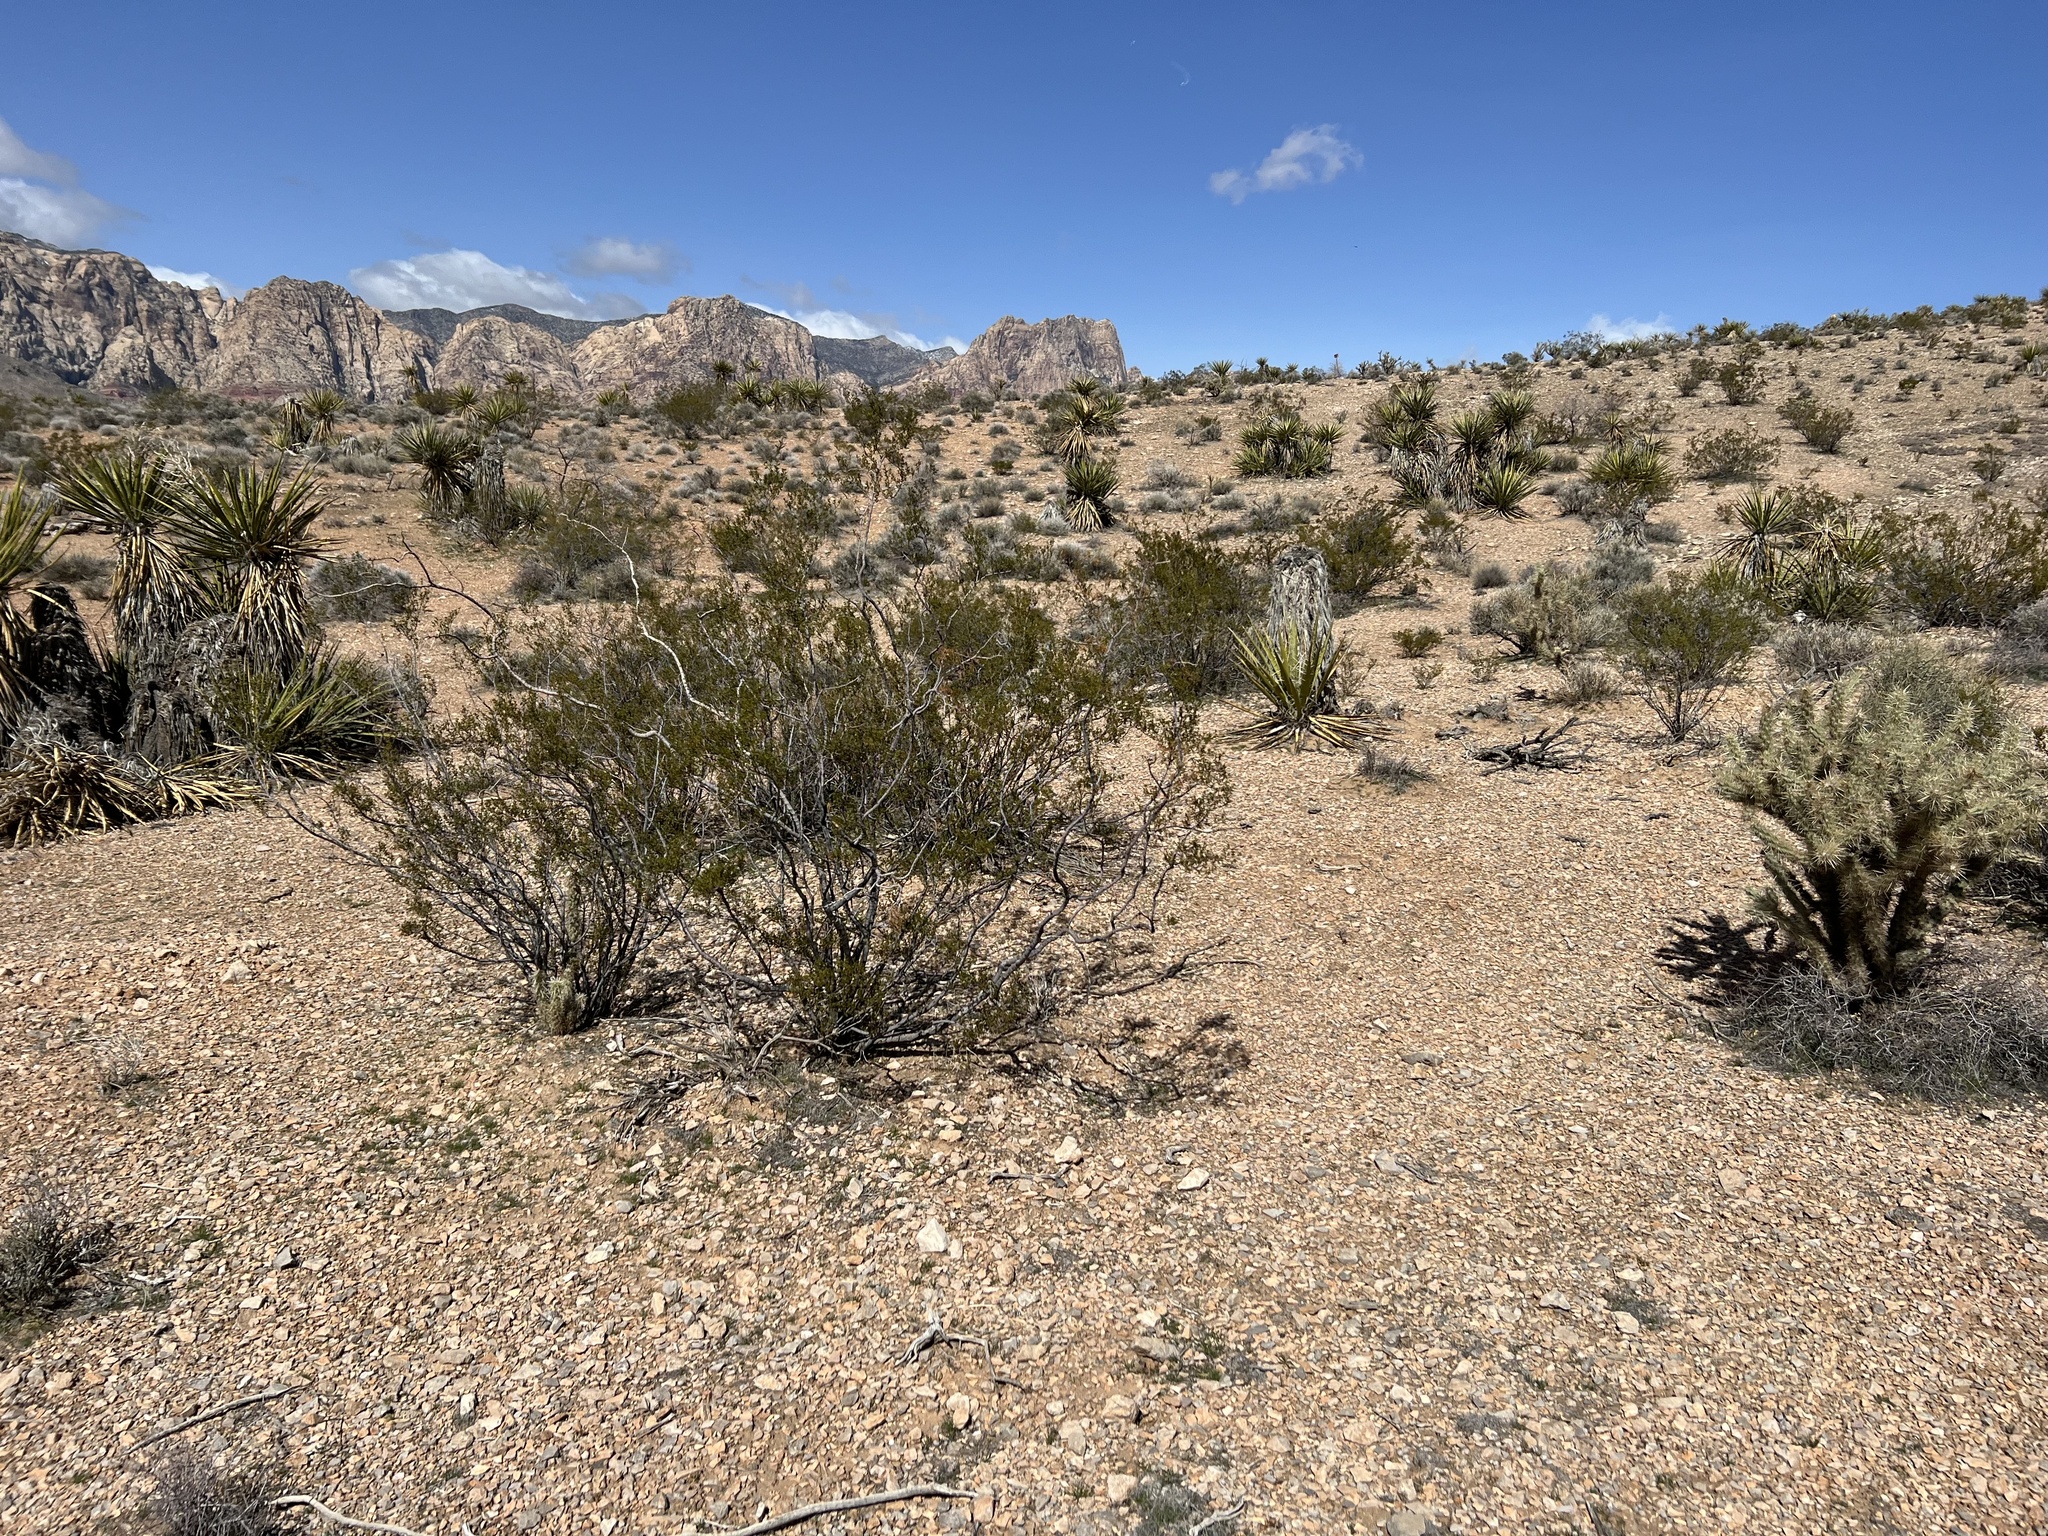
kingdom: Plantae
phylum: Tracheophyta
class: Magnoliopsida
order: Zygophyllales
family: Zygophyllaceae
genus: Larrea
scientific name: Larrea tridentata
